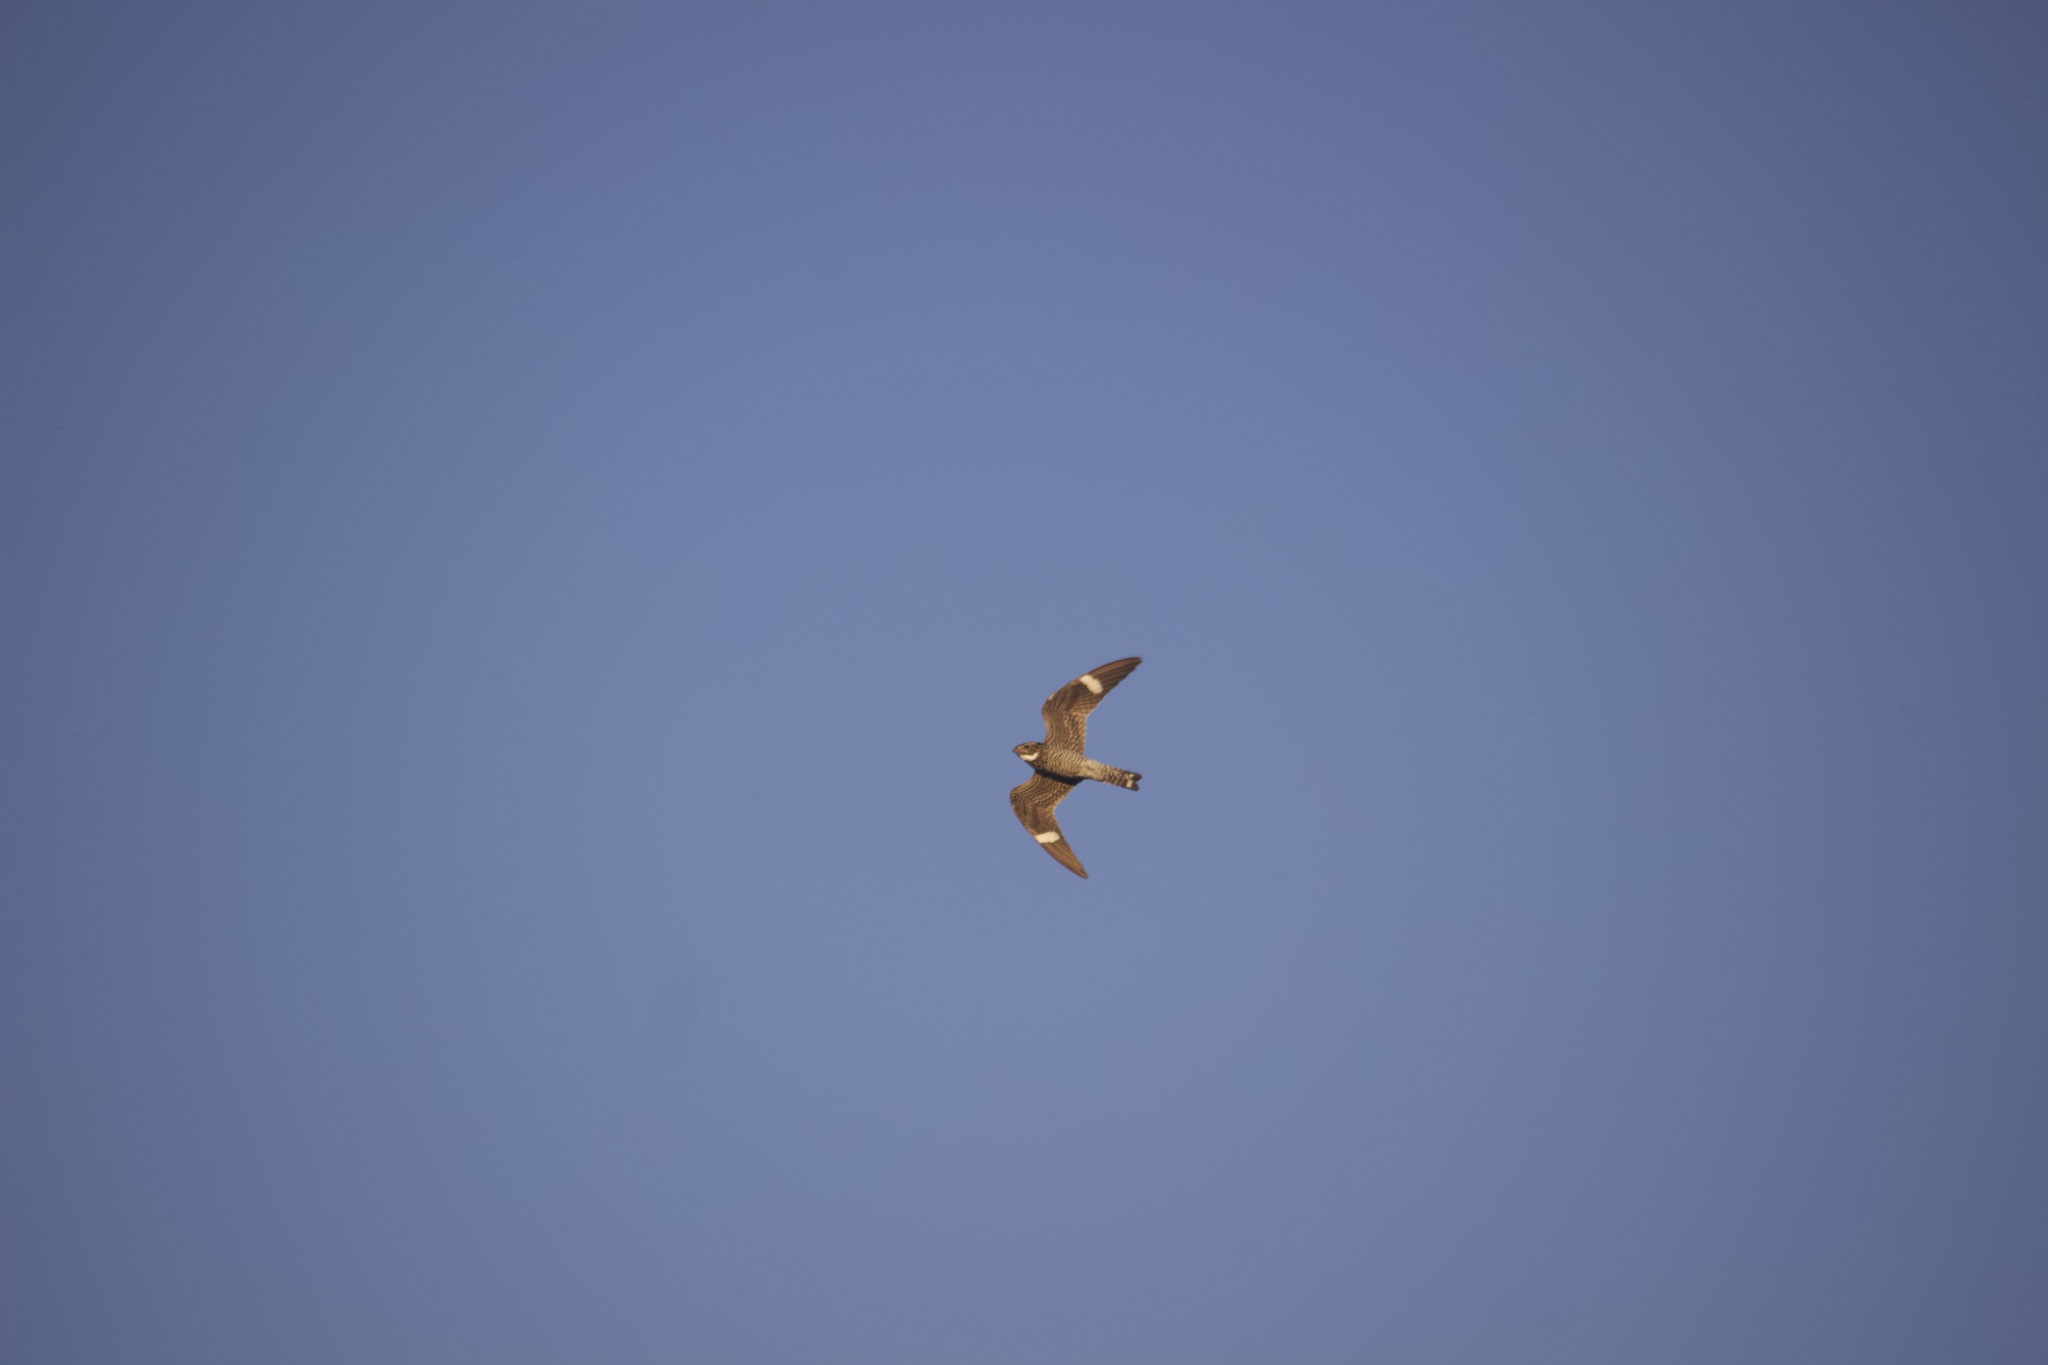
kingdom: Animalia
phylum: Chordata
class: Aves
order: Caprimulgiformes
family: Caprimulgidae
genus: Chordeiles
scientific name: Chordeiles minor
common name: Common nighthawk
